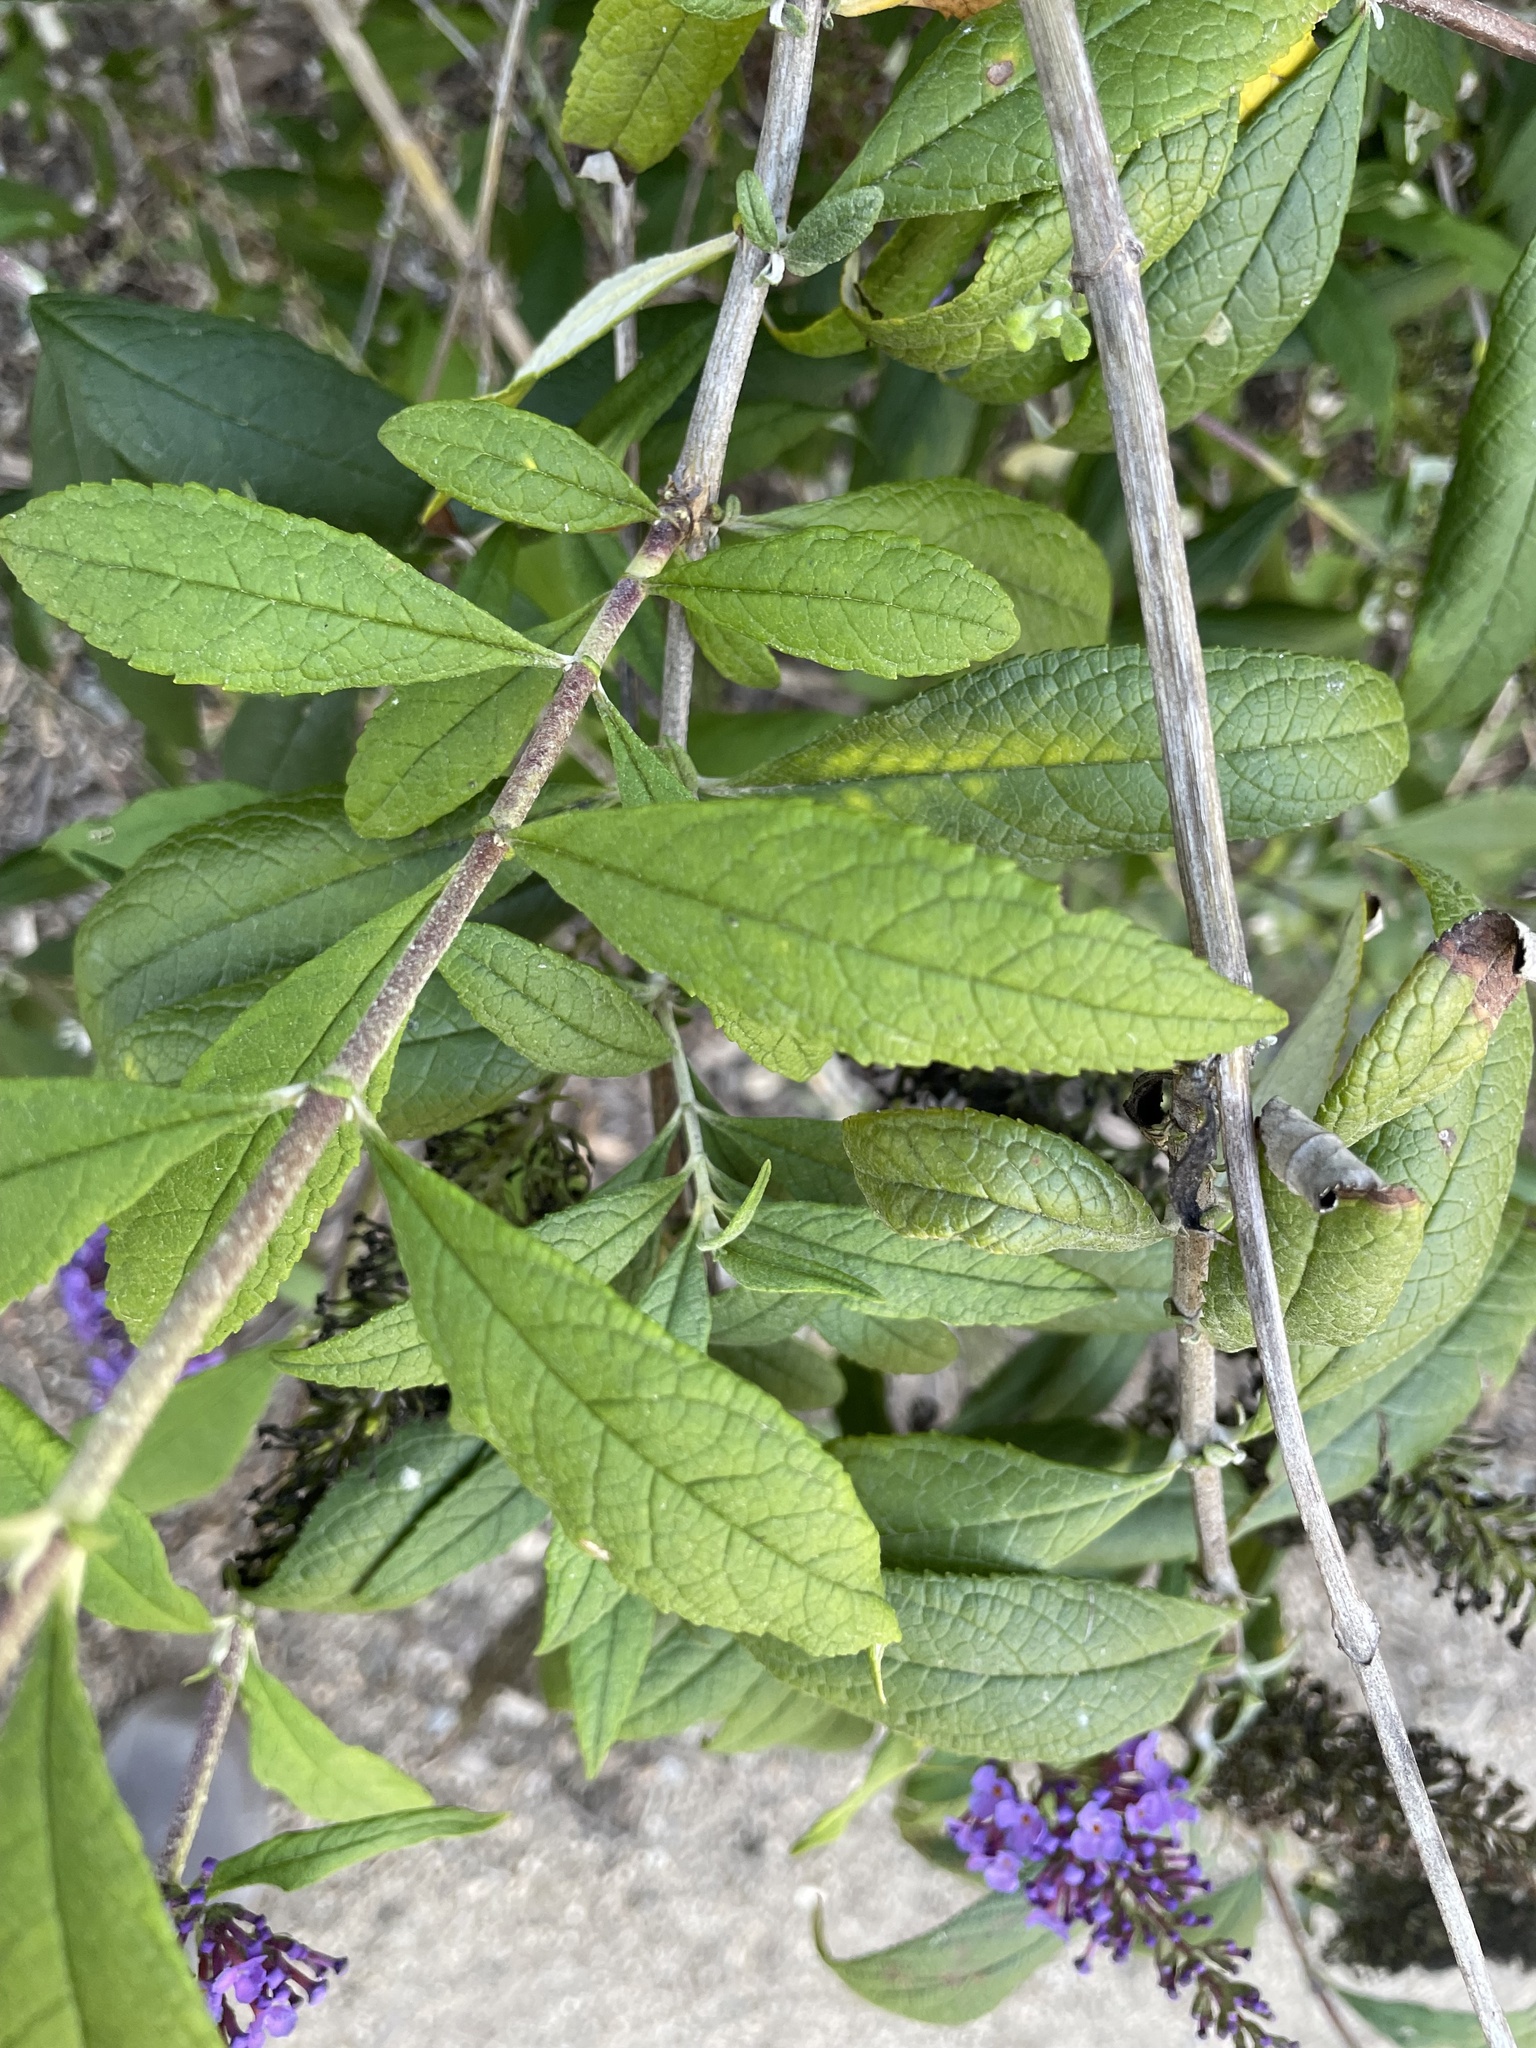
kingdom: Plantae
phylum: Tracheophyta
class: Magnoliopsida
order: Lamiales
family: Scrophulariaceae
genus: Buddleja
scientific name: Buddleja davidii
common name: Butterfly-bush
